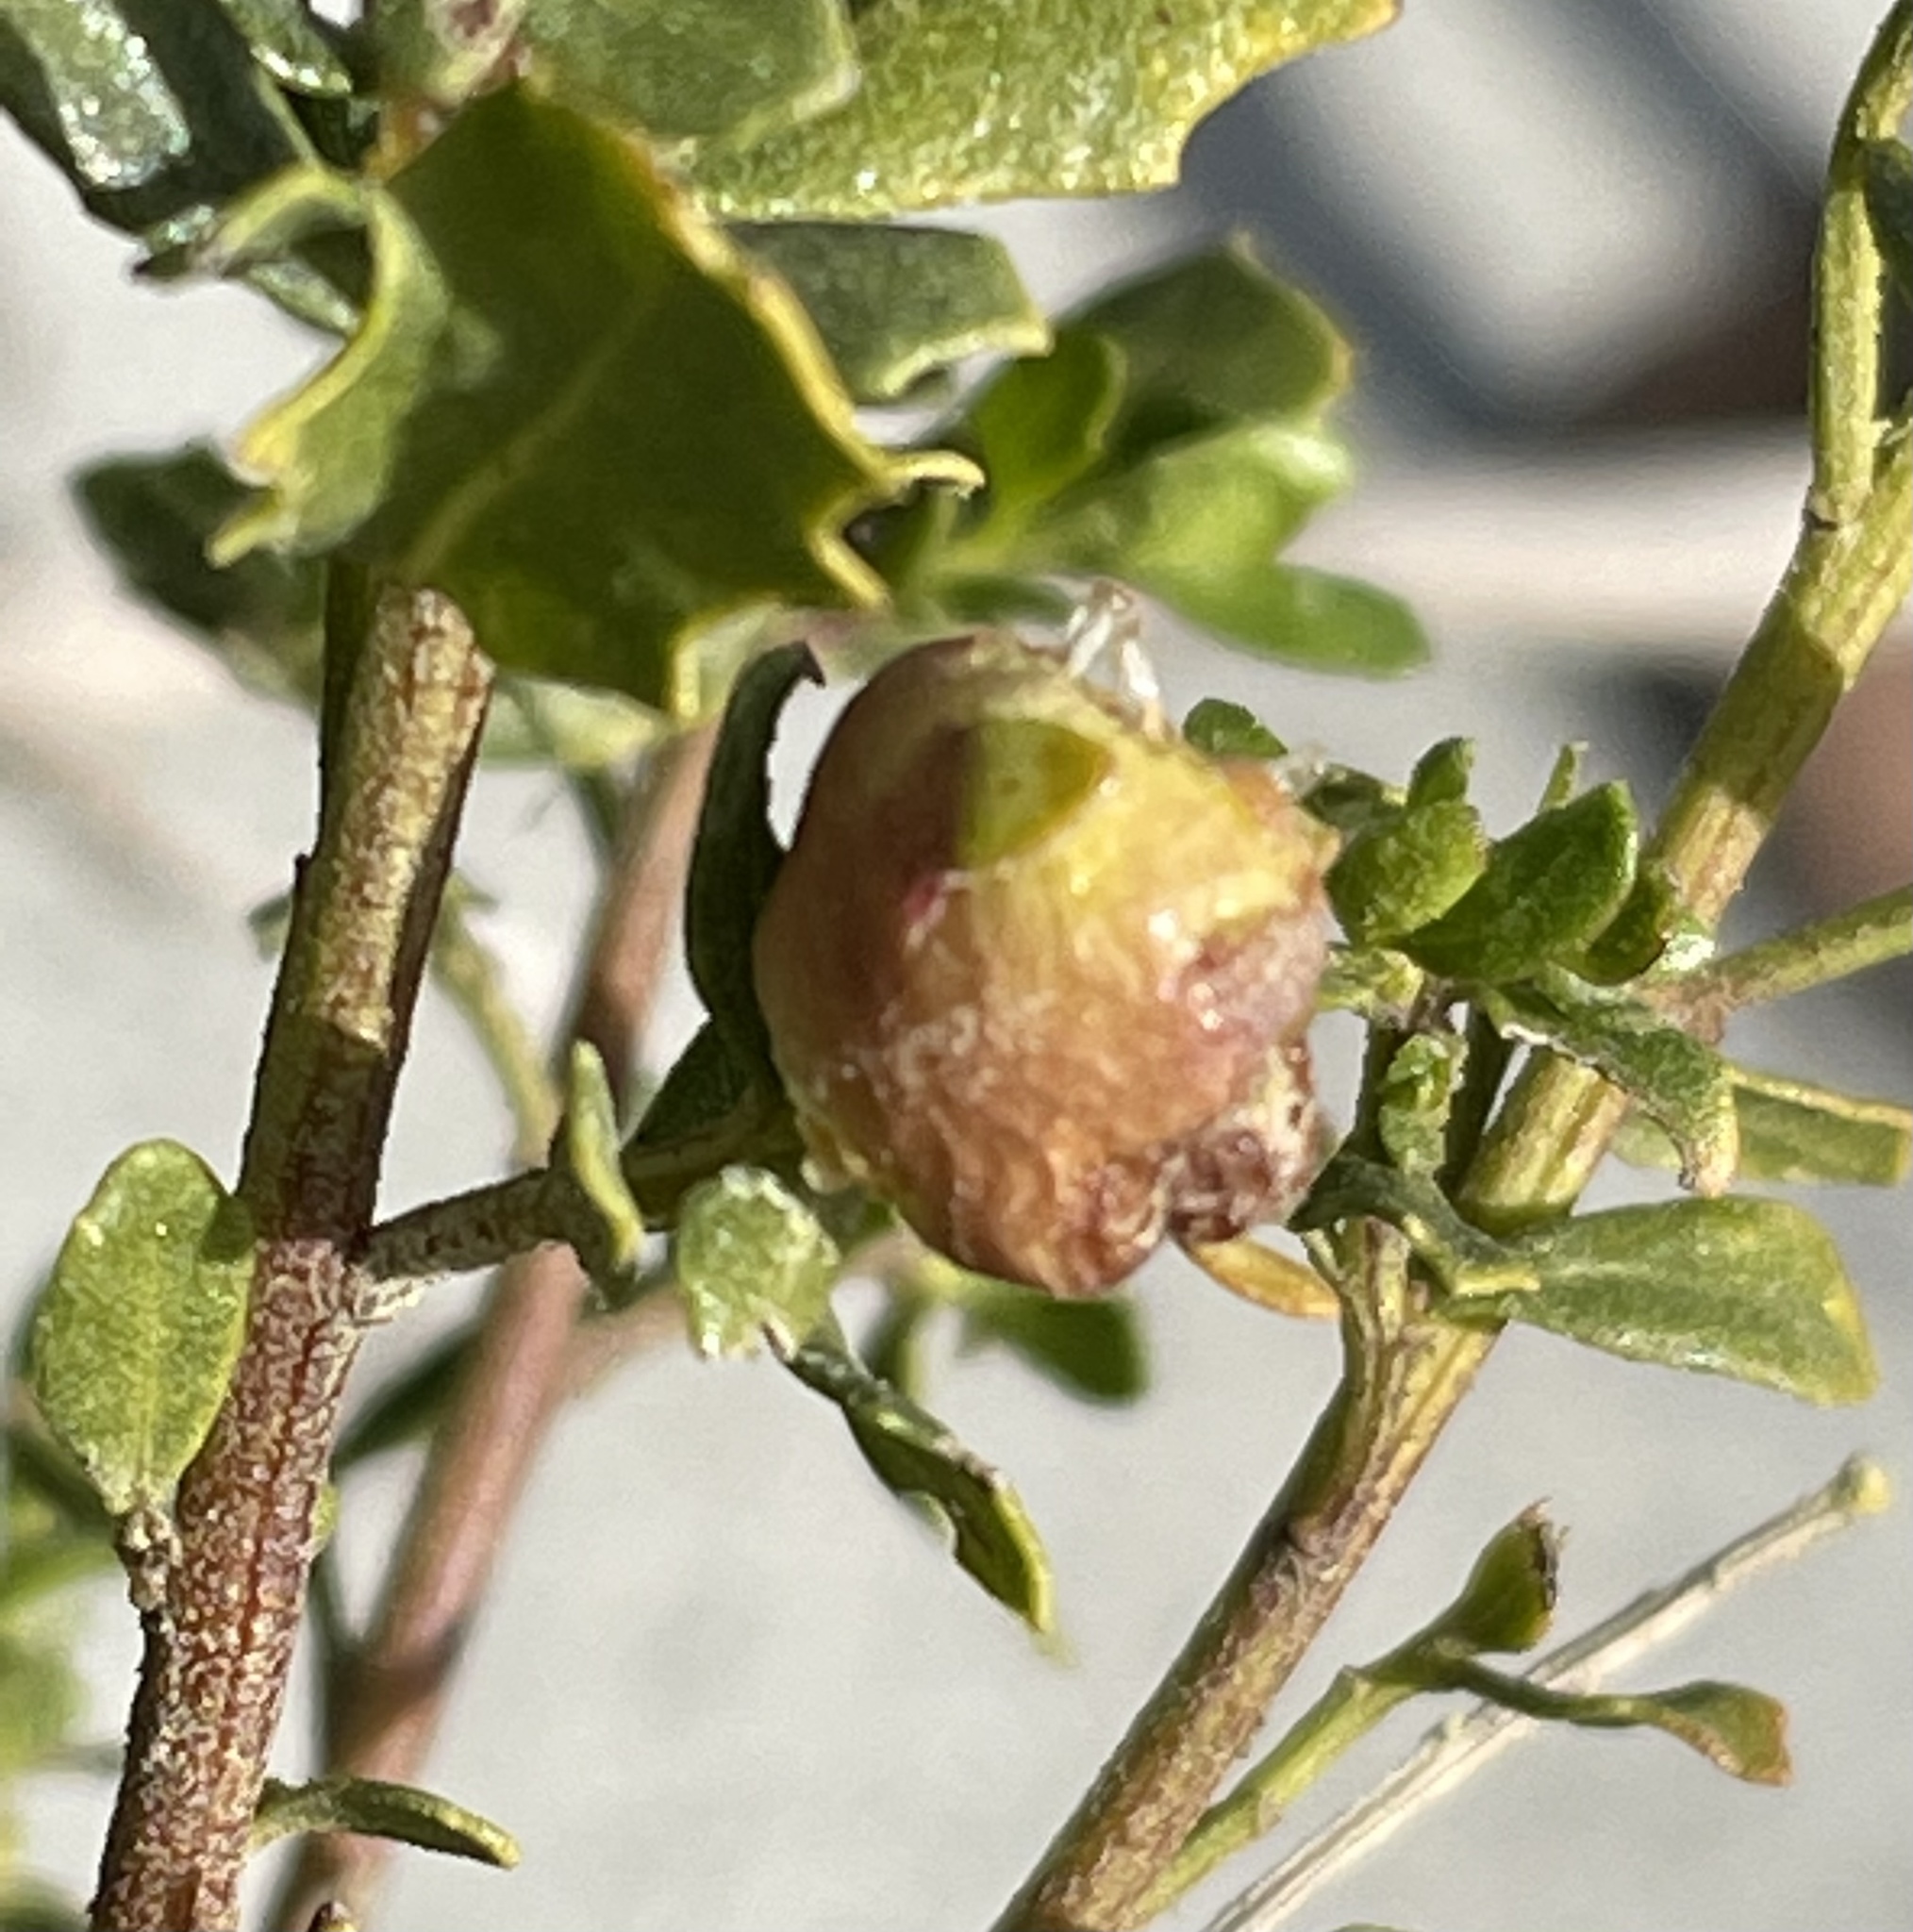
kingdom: Animalia
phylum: Arthropoda
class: Insecta
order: Diptera
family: Cecidomyiidae
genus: Rhopalomyia
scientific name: Rhopalomyia californica
